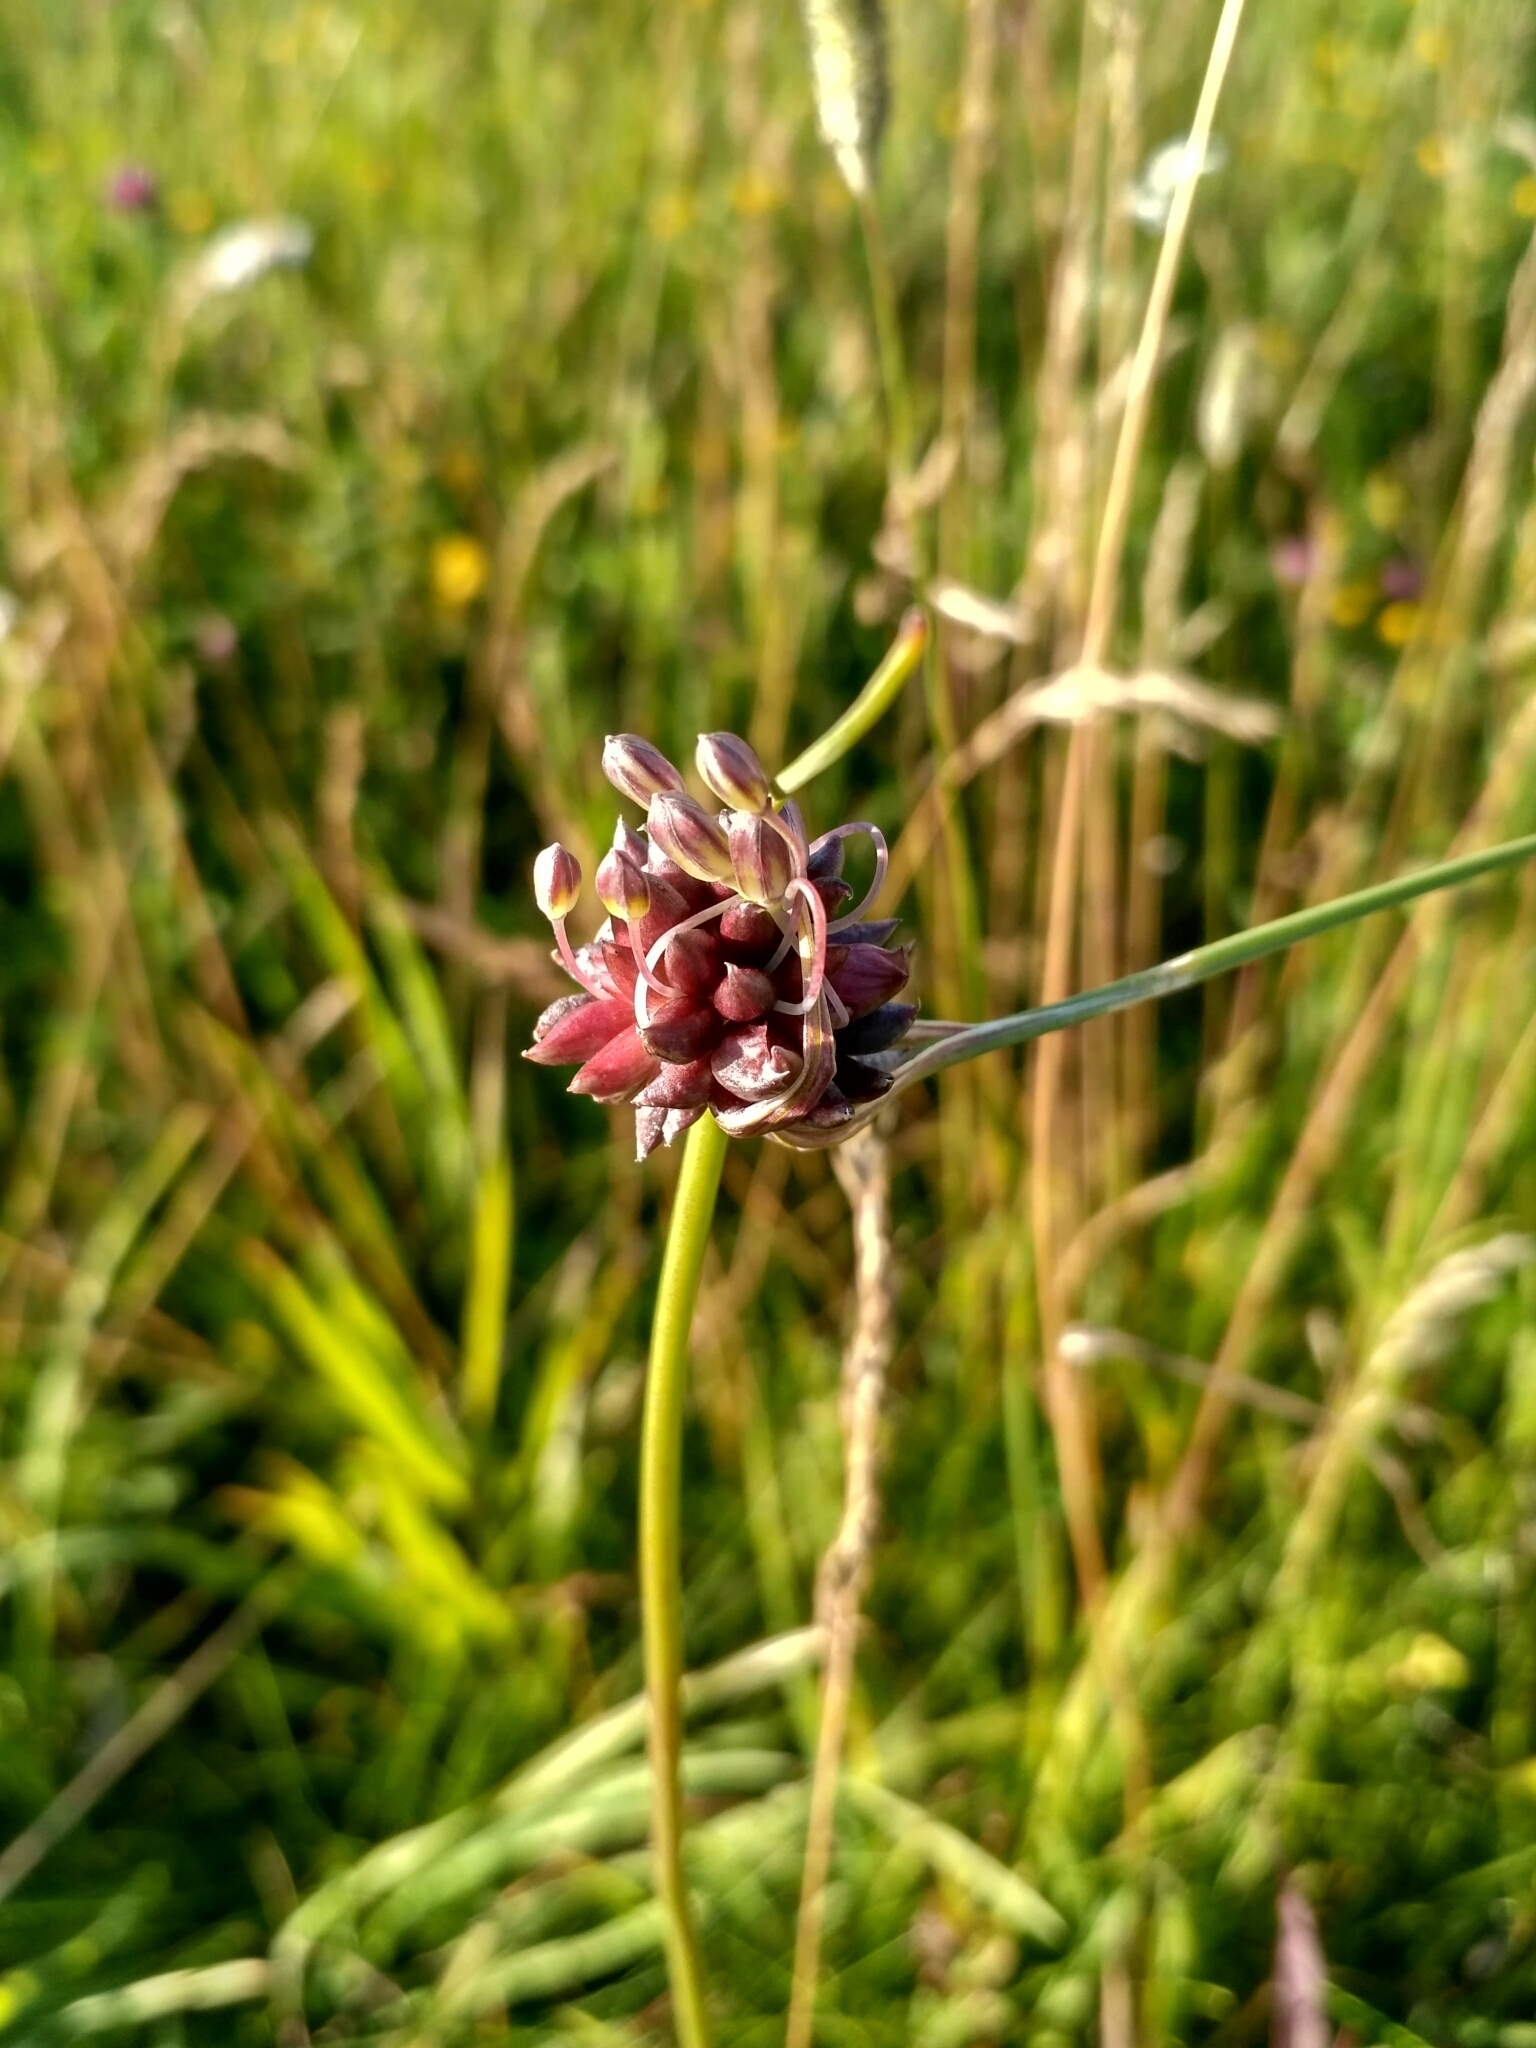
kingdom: Plantae
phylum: Tracheophyta
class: Liliopsida
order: Asparagales
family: Amaryllidaceae
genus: Allium
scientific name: Allium oleraceum
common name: Field garlic
